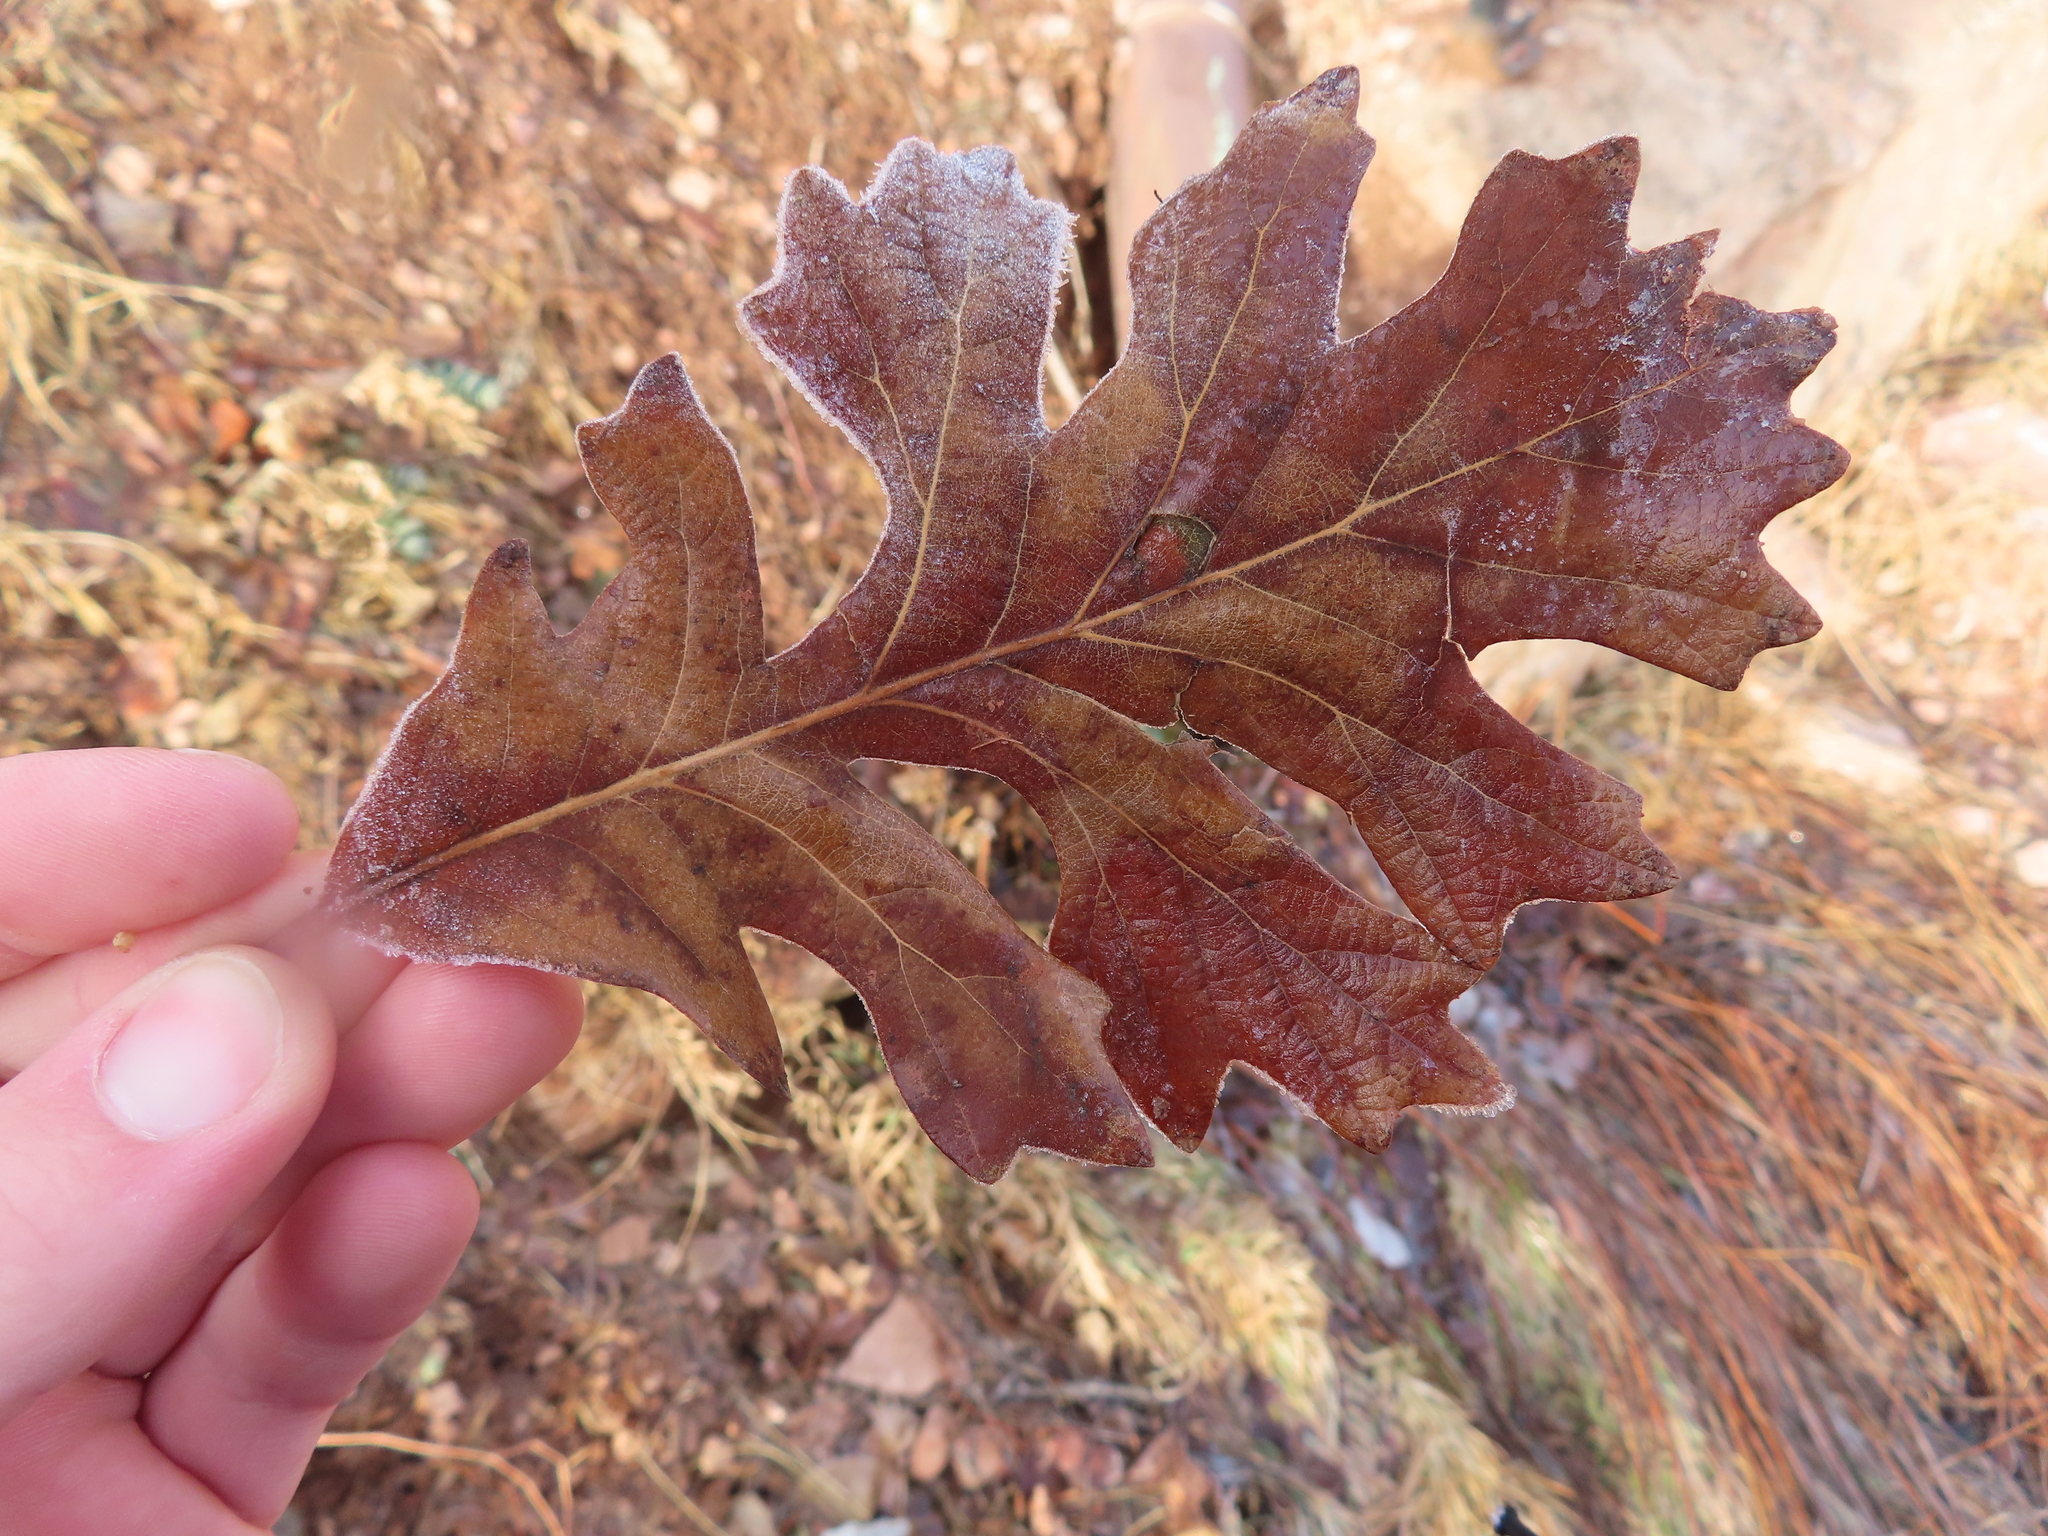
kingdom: Plantae
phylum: Tracheophyta
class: Magnoliopsida
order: Fagales
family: Fagaceae
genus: Quercus
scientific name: Quercus macrocarpa
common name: Bur oak
